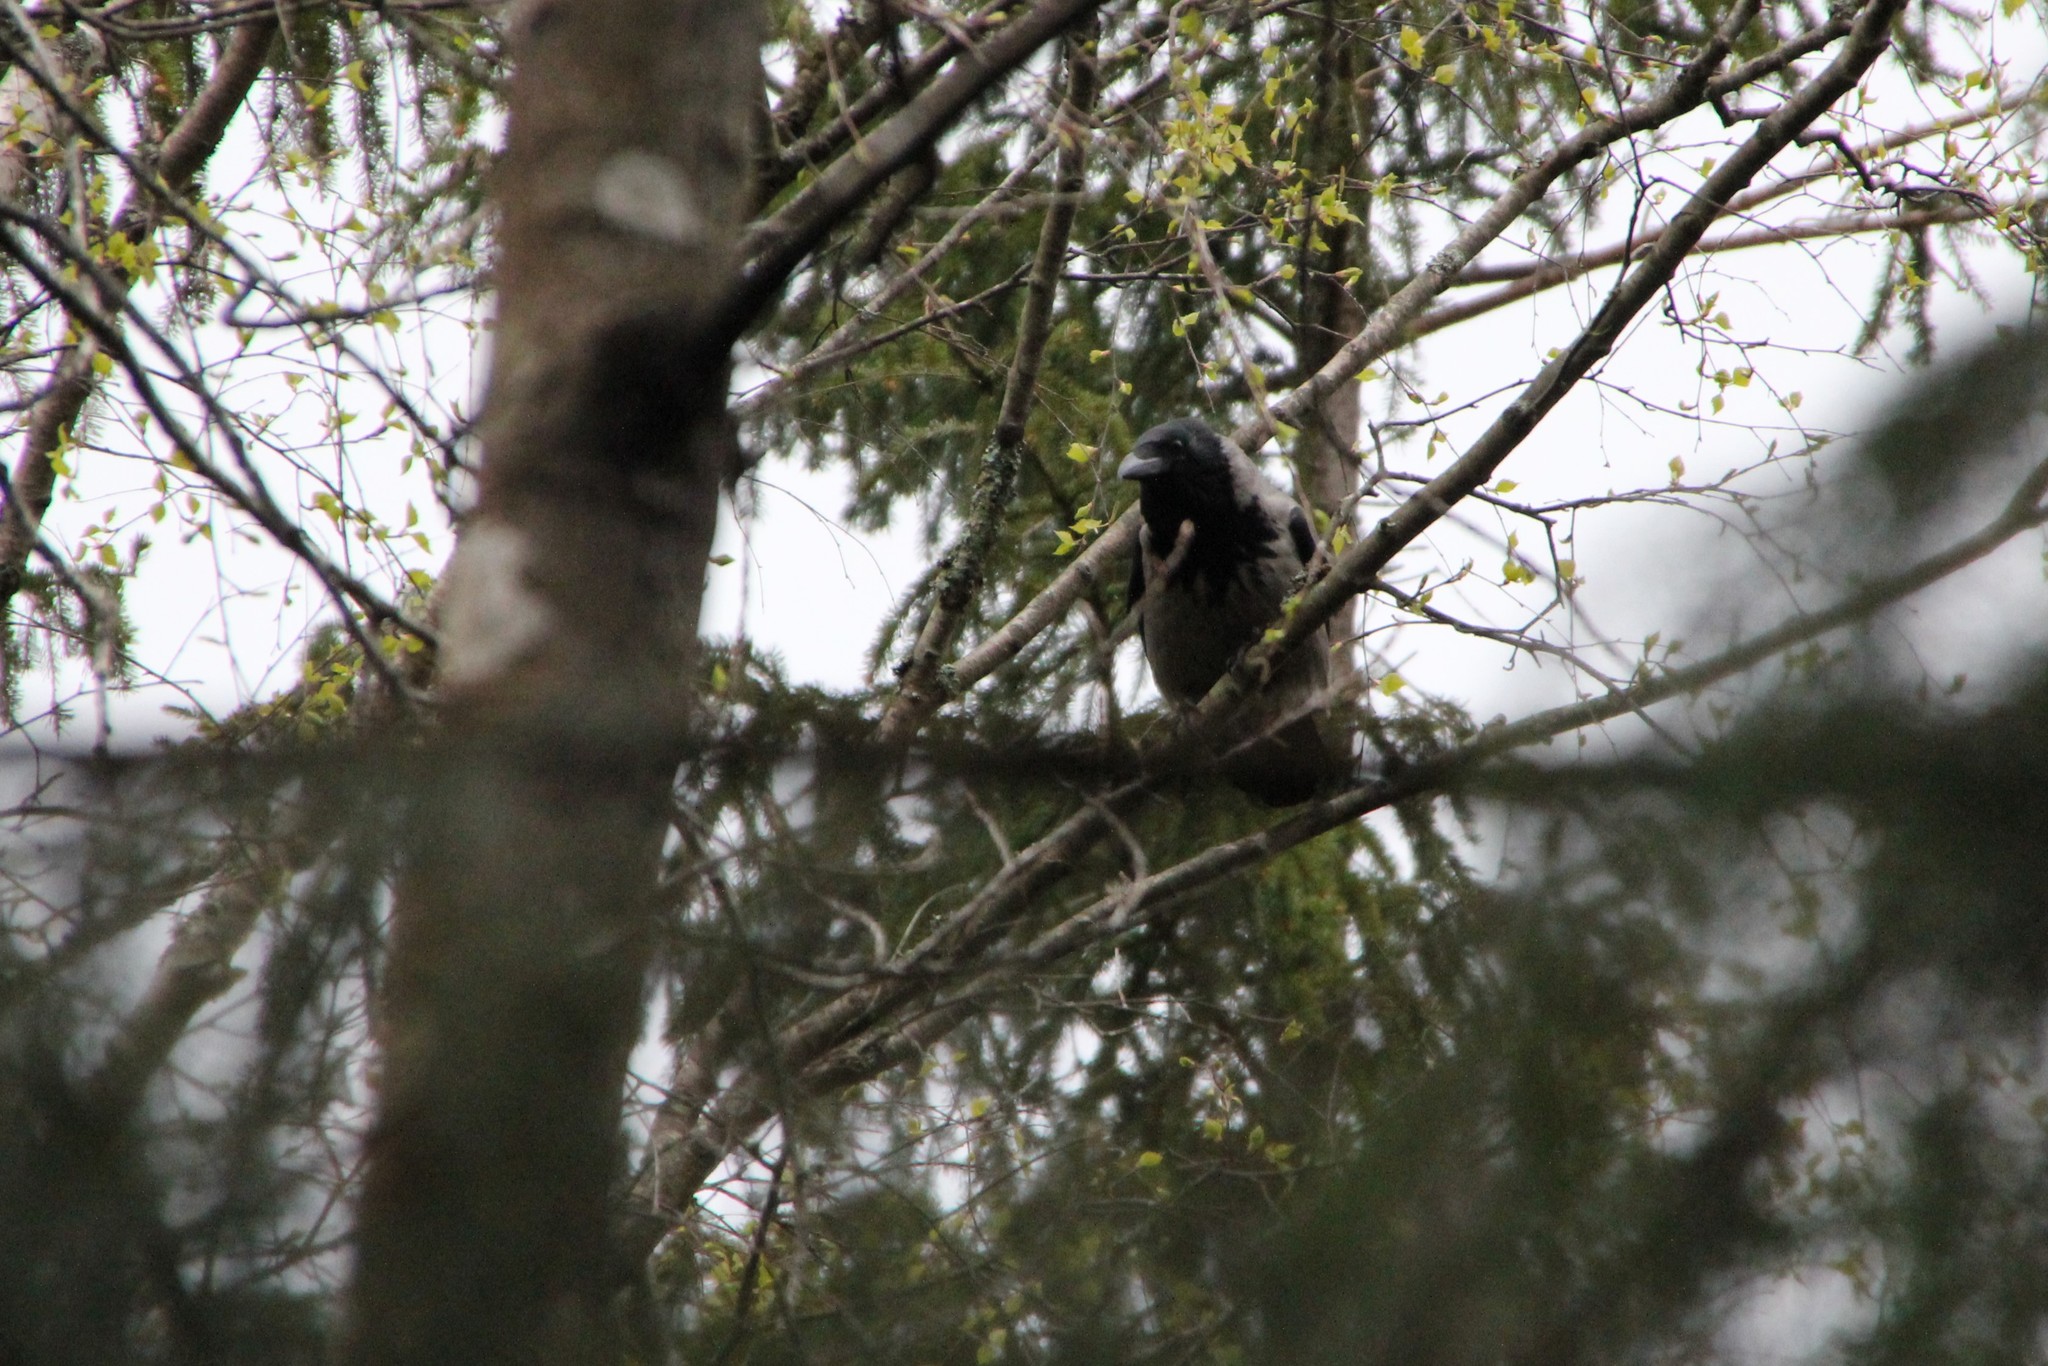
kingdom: Animalia
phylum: Chordata
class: Aves
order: Passeriformes
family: Corvidae
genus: Corvus
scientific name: Corvus cornix
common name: Hooded crow
